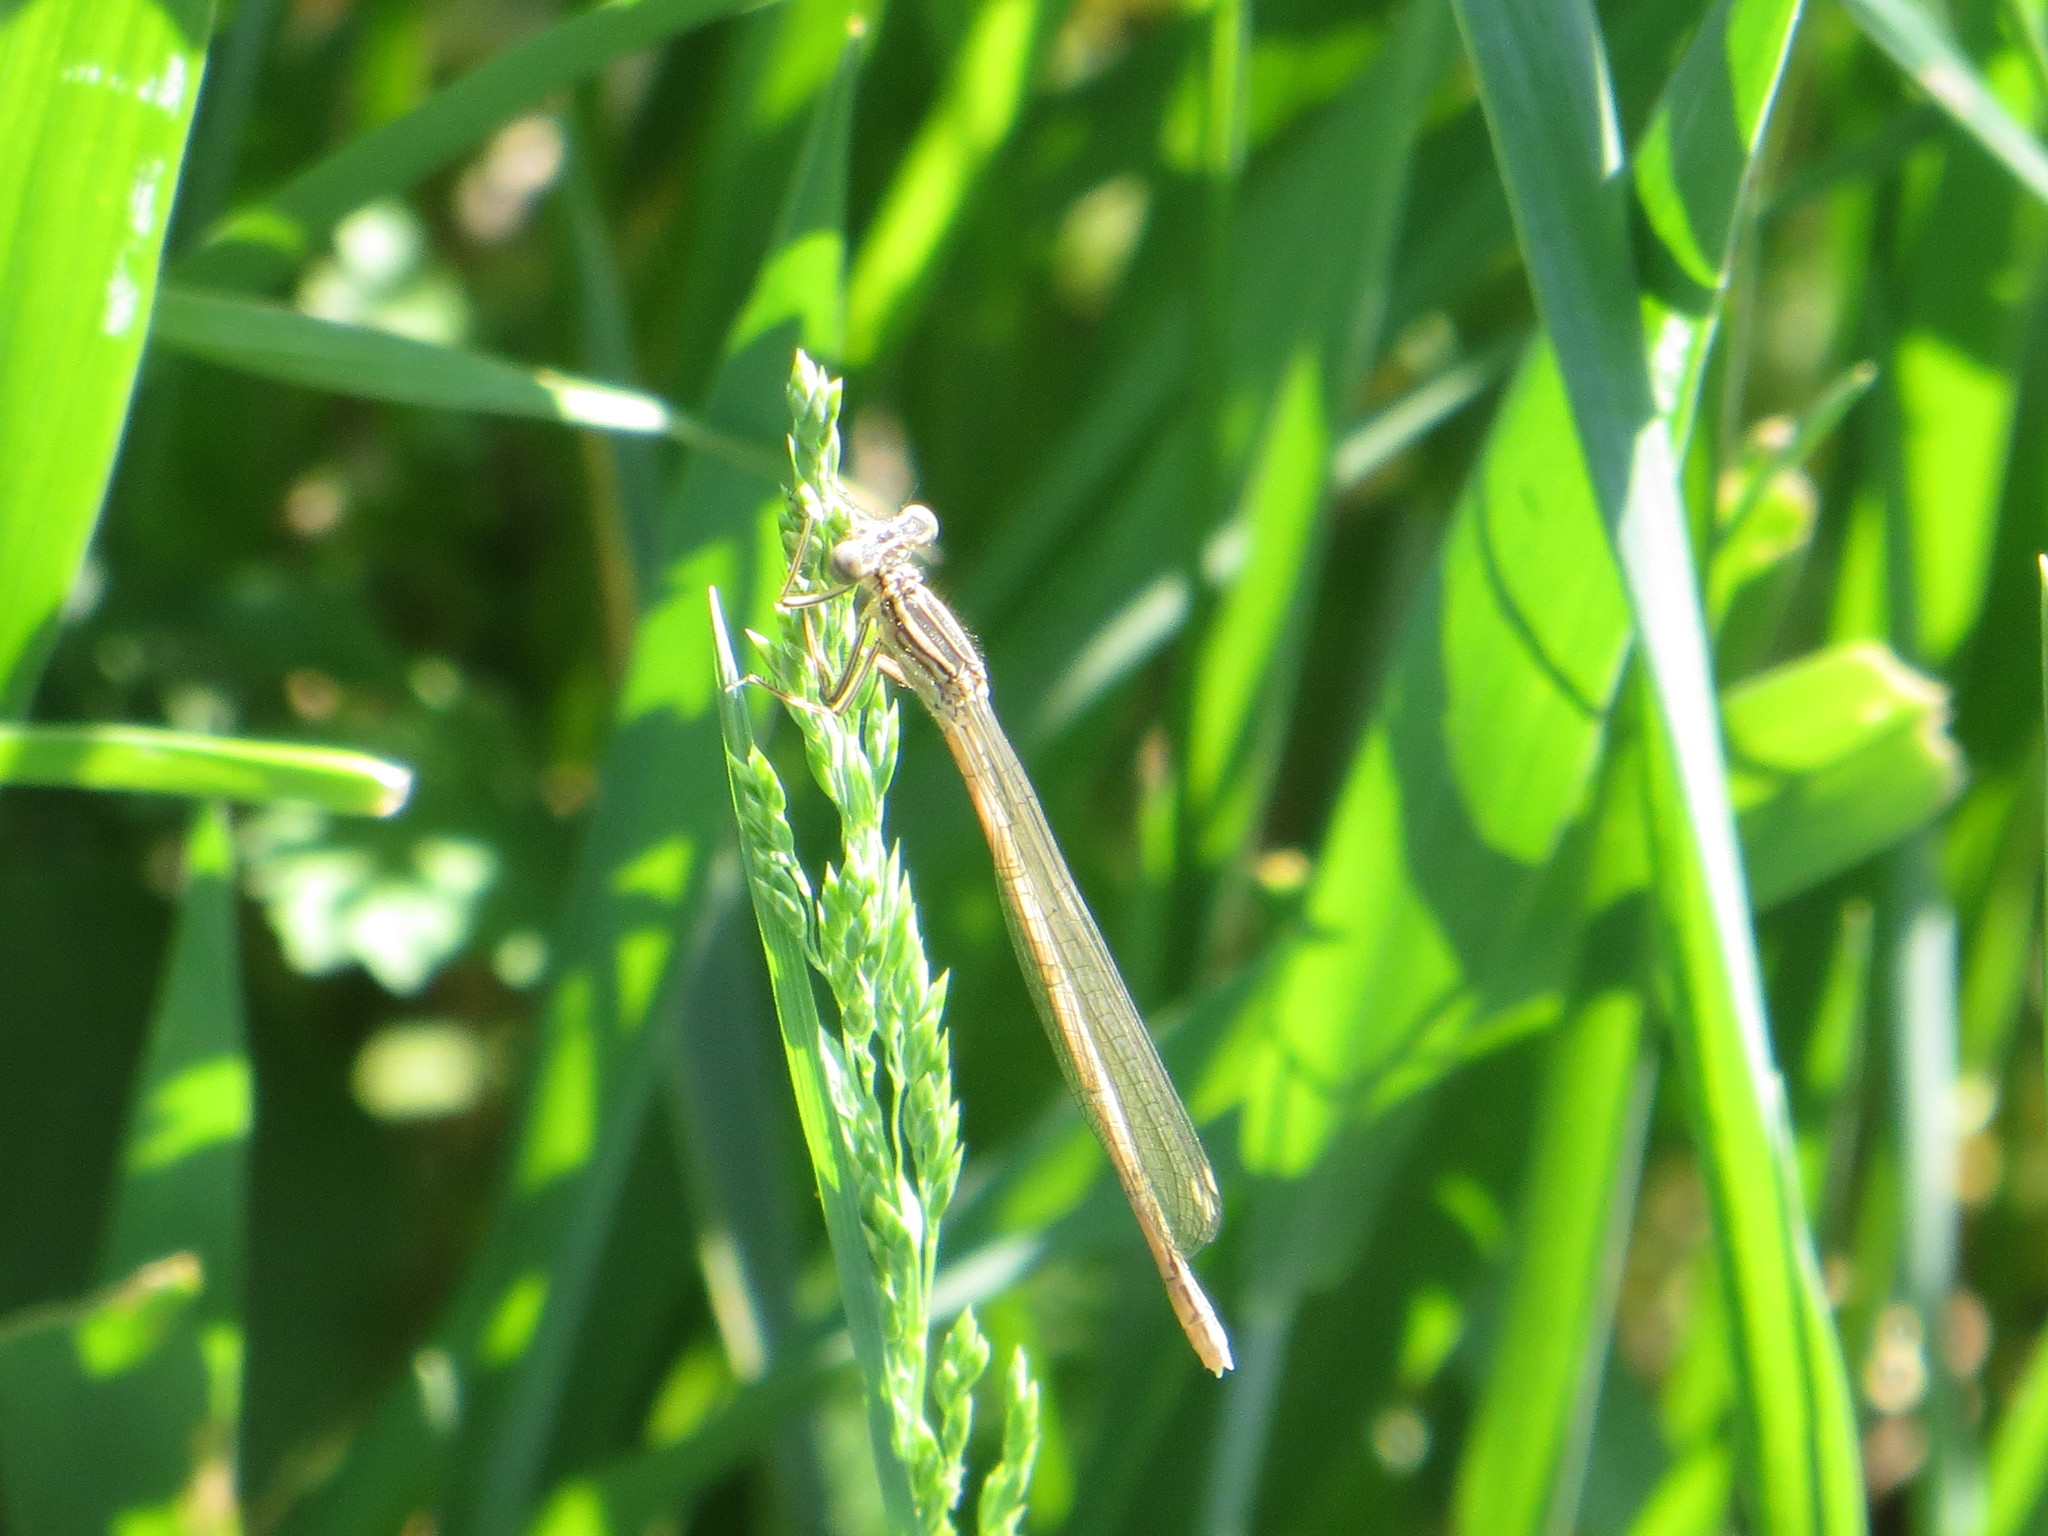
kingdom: Animalia
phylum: Arthropoda
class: Insecta
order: Odonata
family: Platycnemididae
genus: Platycnemis
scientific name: Platycnemis pennipes
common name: White-legged damselfly
